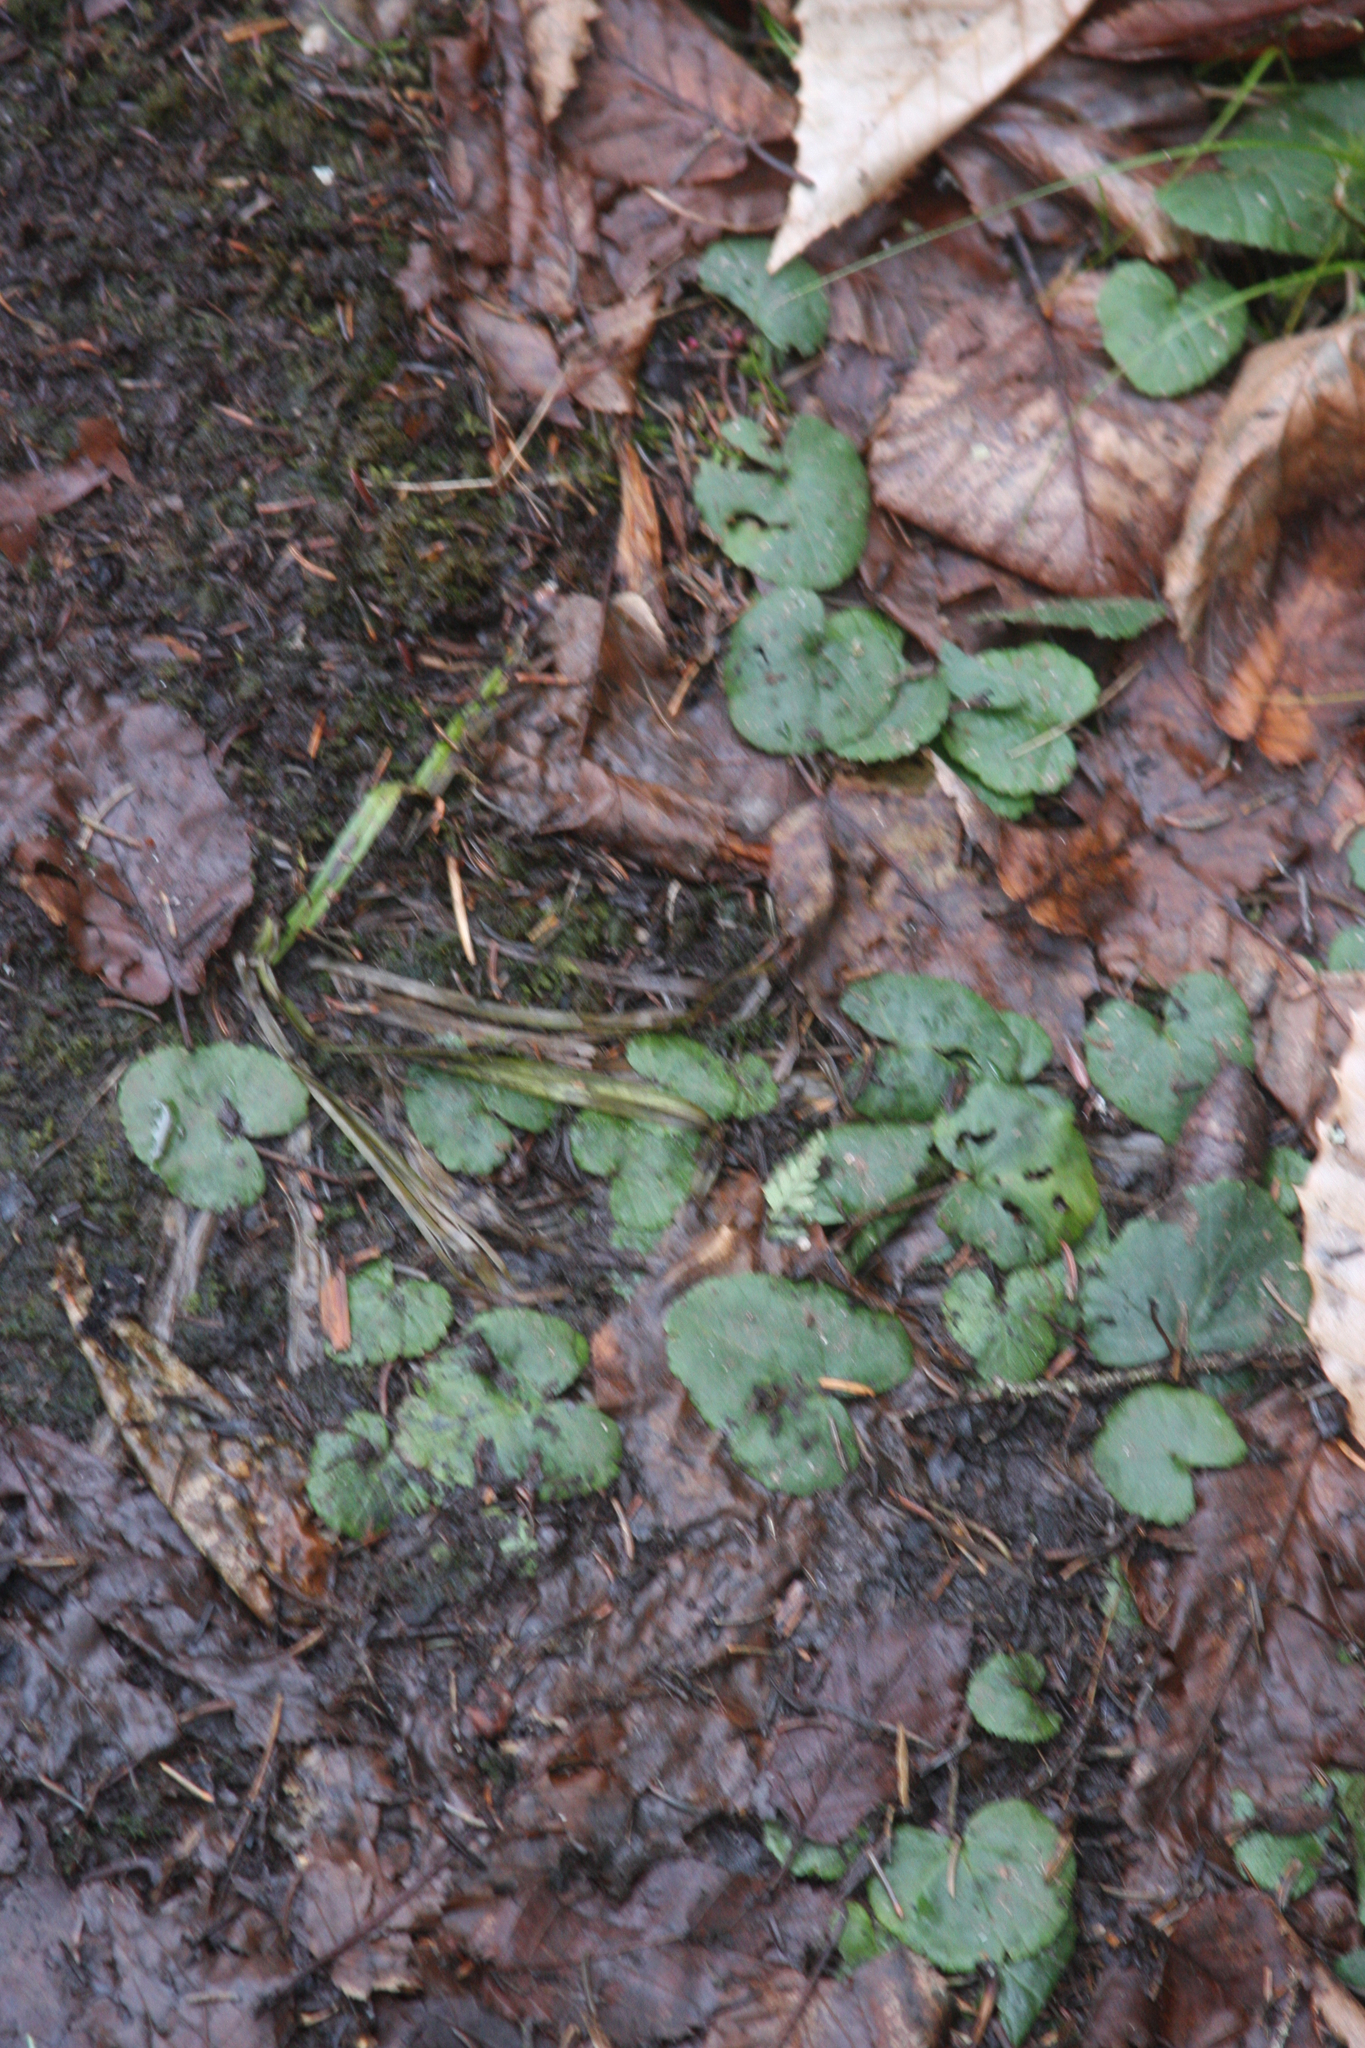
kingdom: Plantae
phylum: Tracheophyta
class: Magnoliopsida
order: Rosales
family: Rosaceae
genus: Dalibarda
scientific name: Dalibarda repens
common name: Dewdrop
